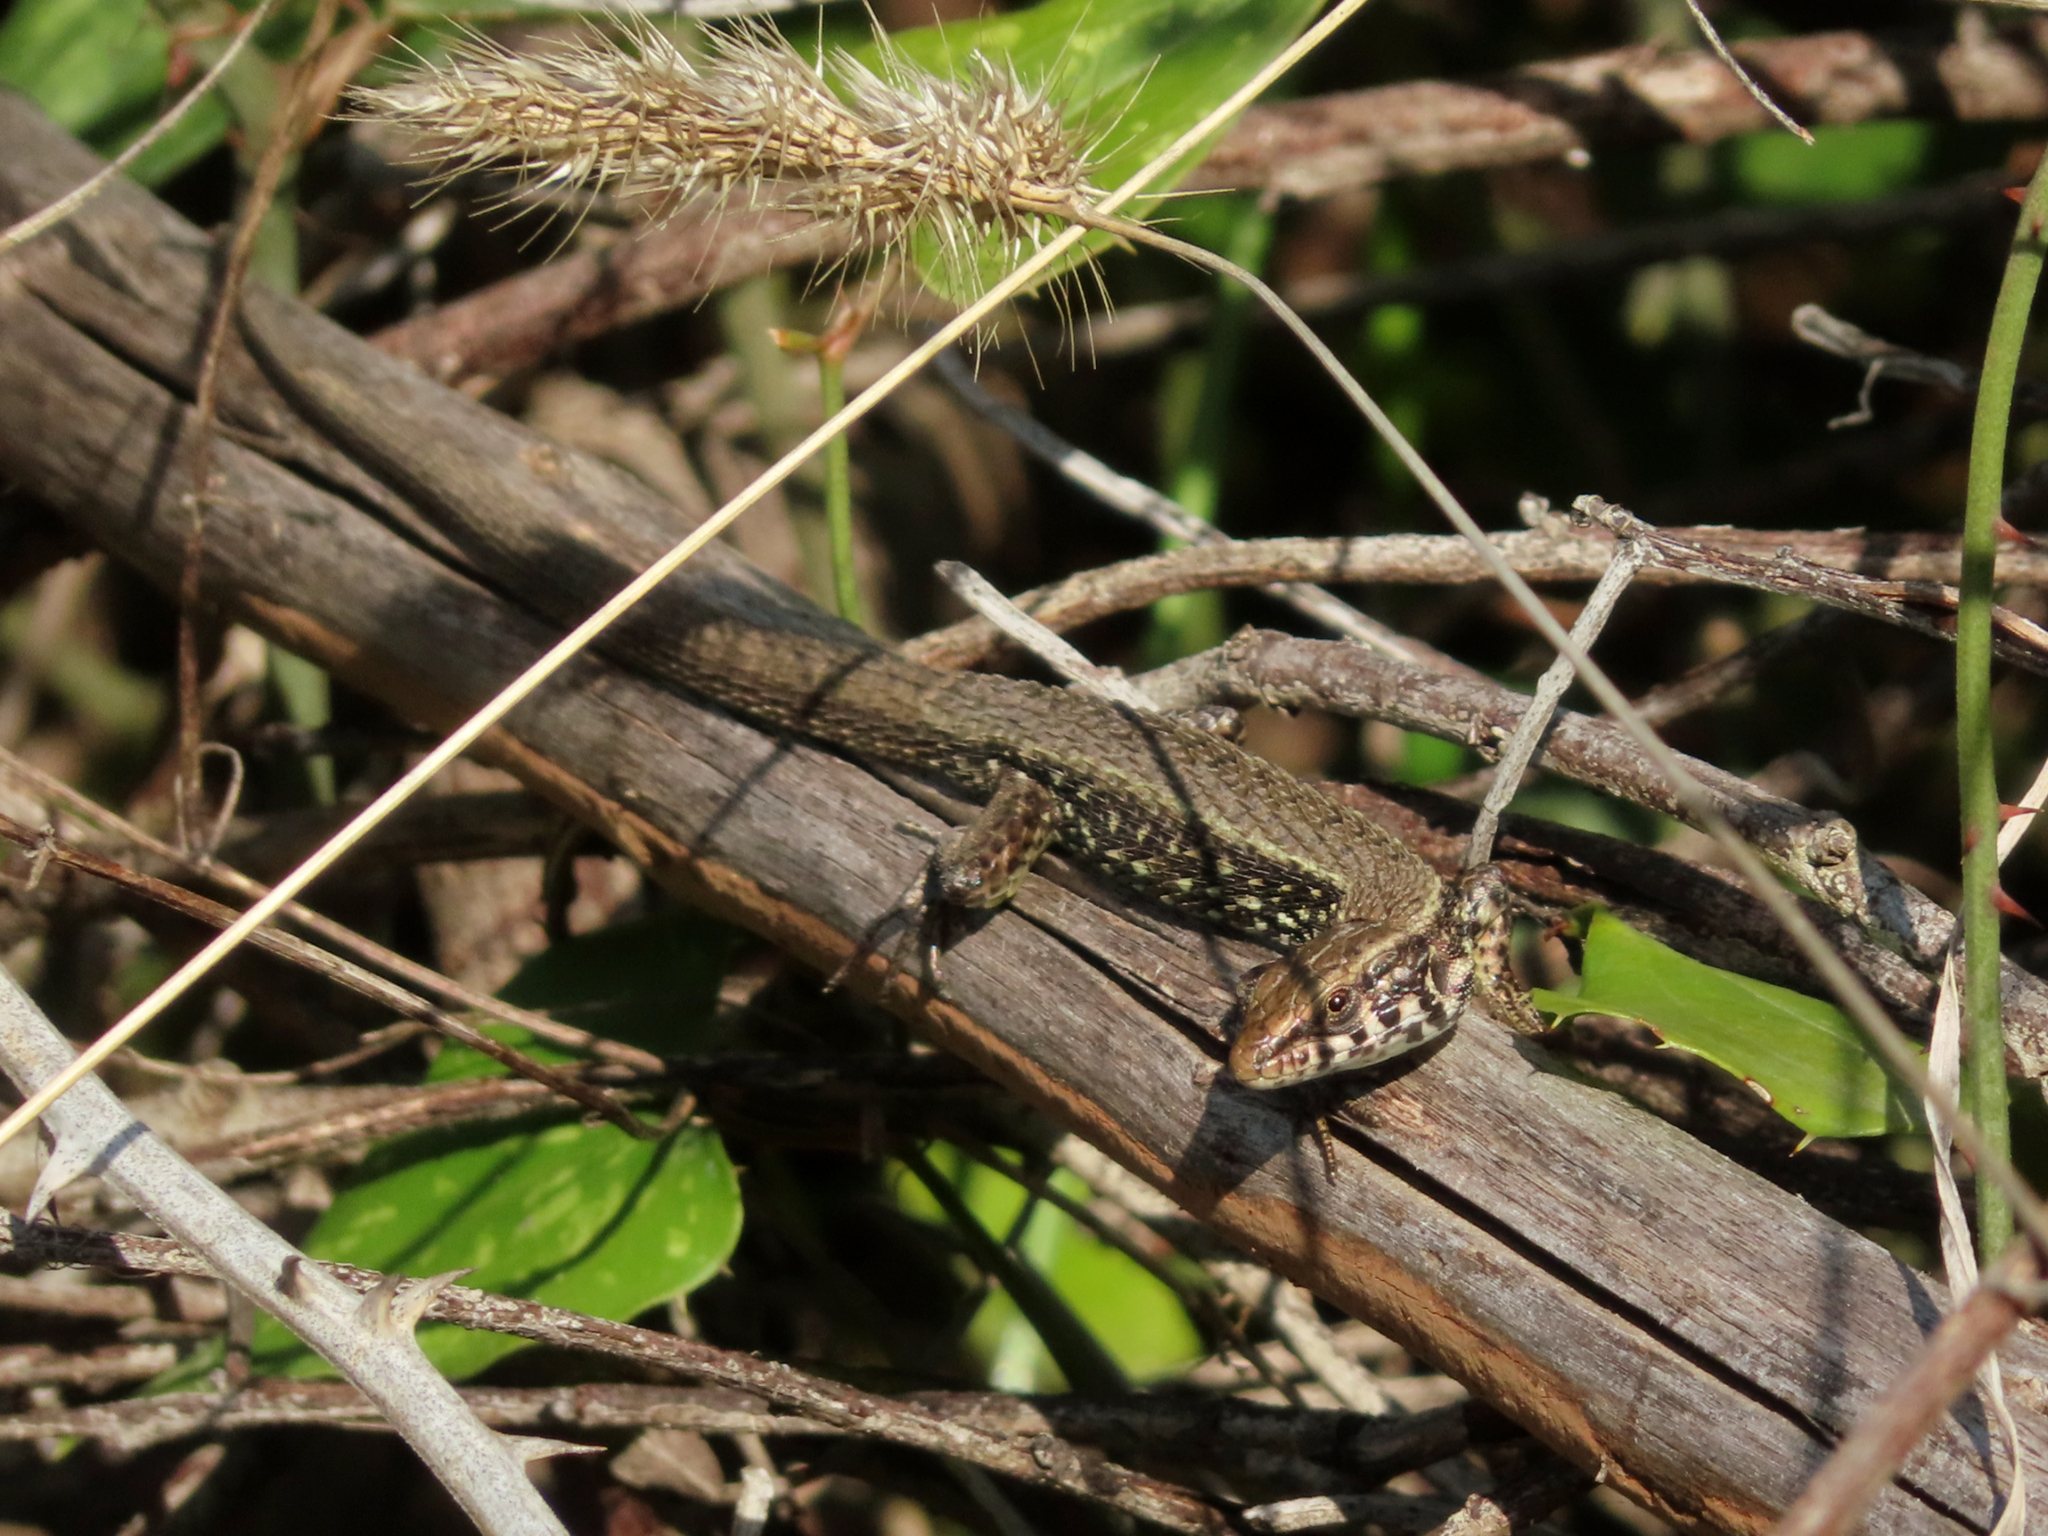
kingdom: Animalia
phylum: Chordata
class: Squamata
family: Lacertidae
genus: Algyroides
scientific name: Algyroides moreoticus
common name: Greek algyroides
